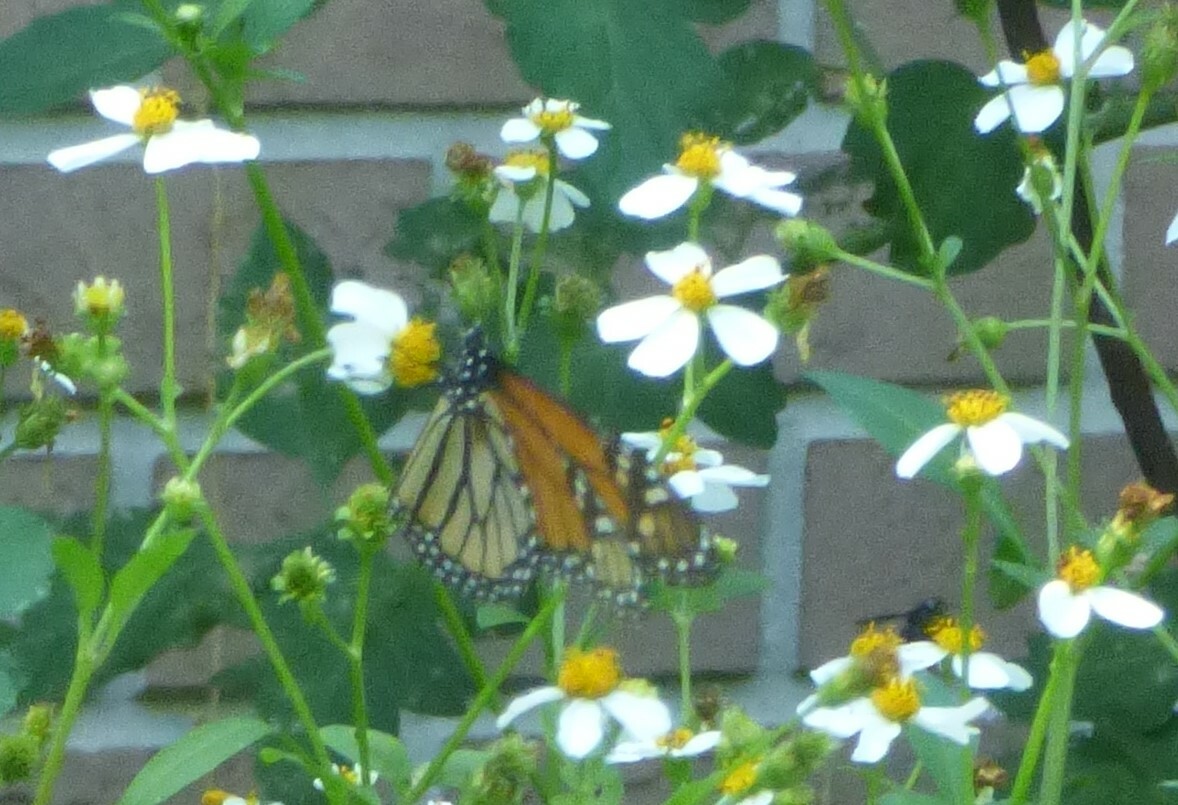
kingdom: Animalia
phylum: Arthropoda
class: Insecta
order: Lepidoptera
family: Nymphalidae
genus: Danaus
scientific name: Danaus plexippus
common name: Monarch
